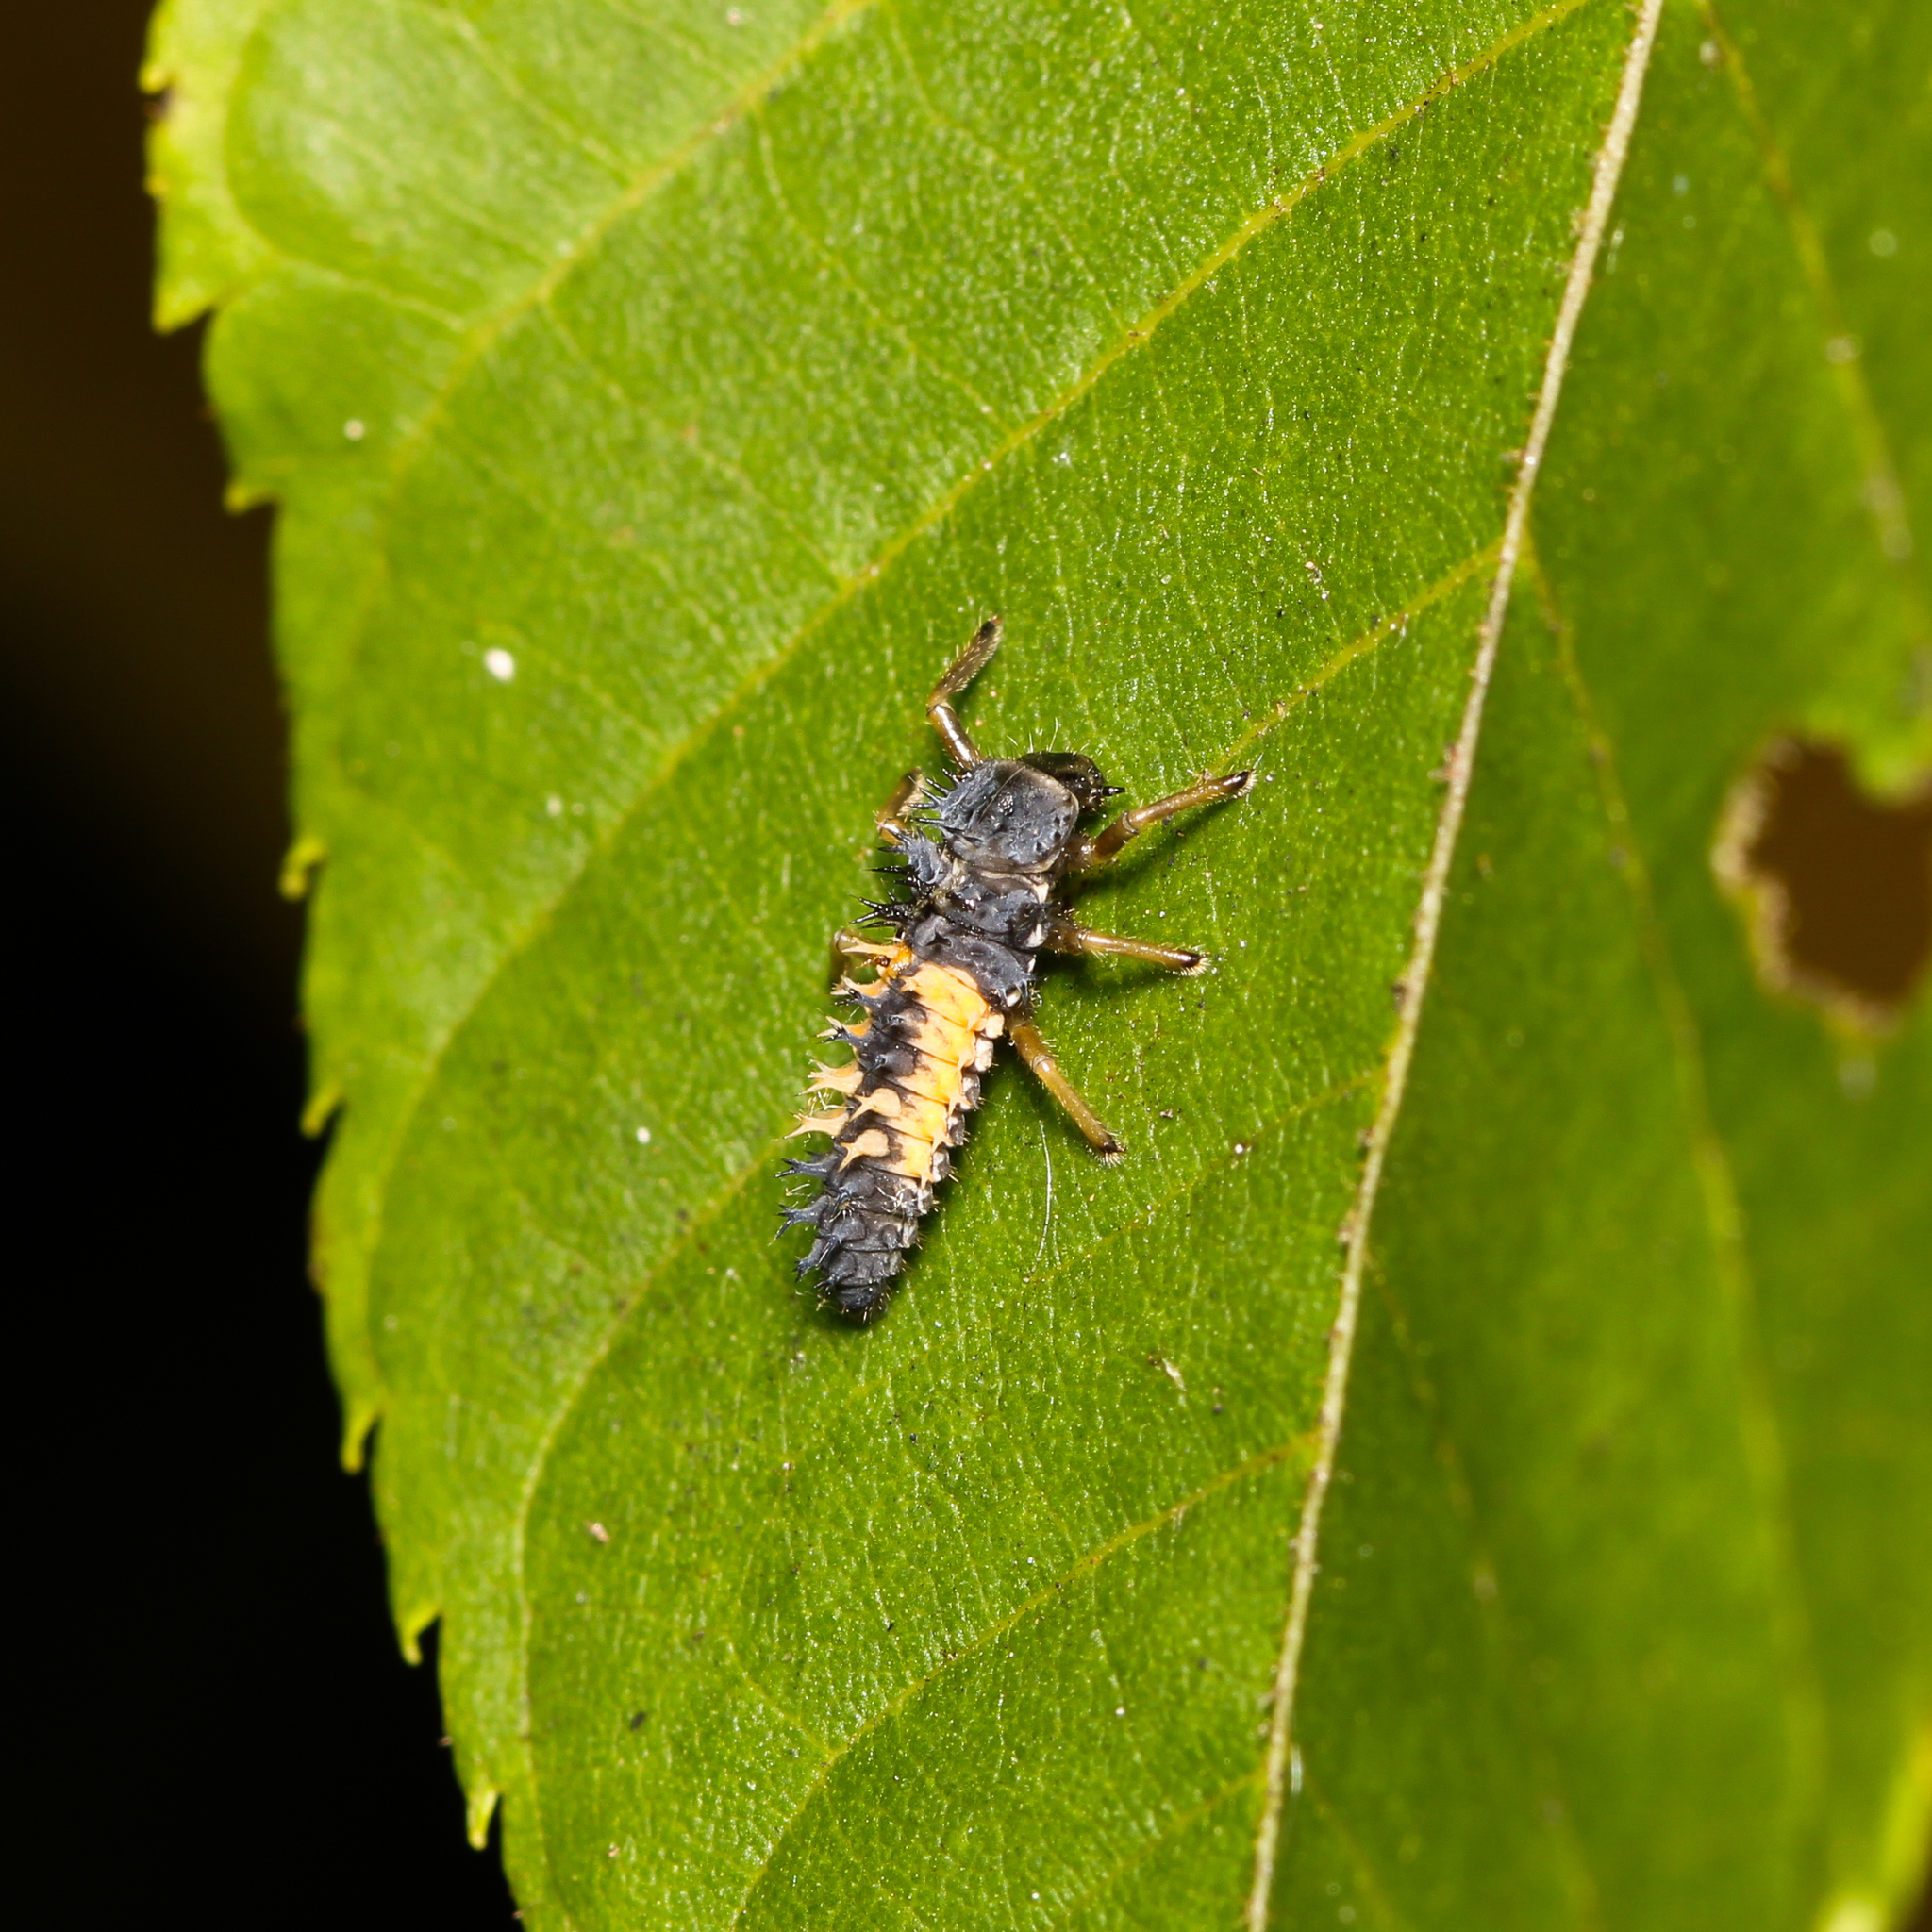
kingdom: Animalia
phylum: Arthropoda
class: Insecta
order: Coleoptera
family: Coccinellidae
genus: Harmonia
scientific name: Harmonia axyridis
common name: Harlequin ladybird
